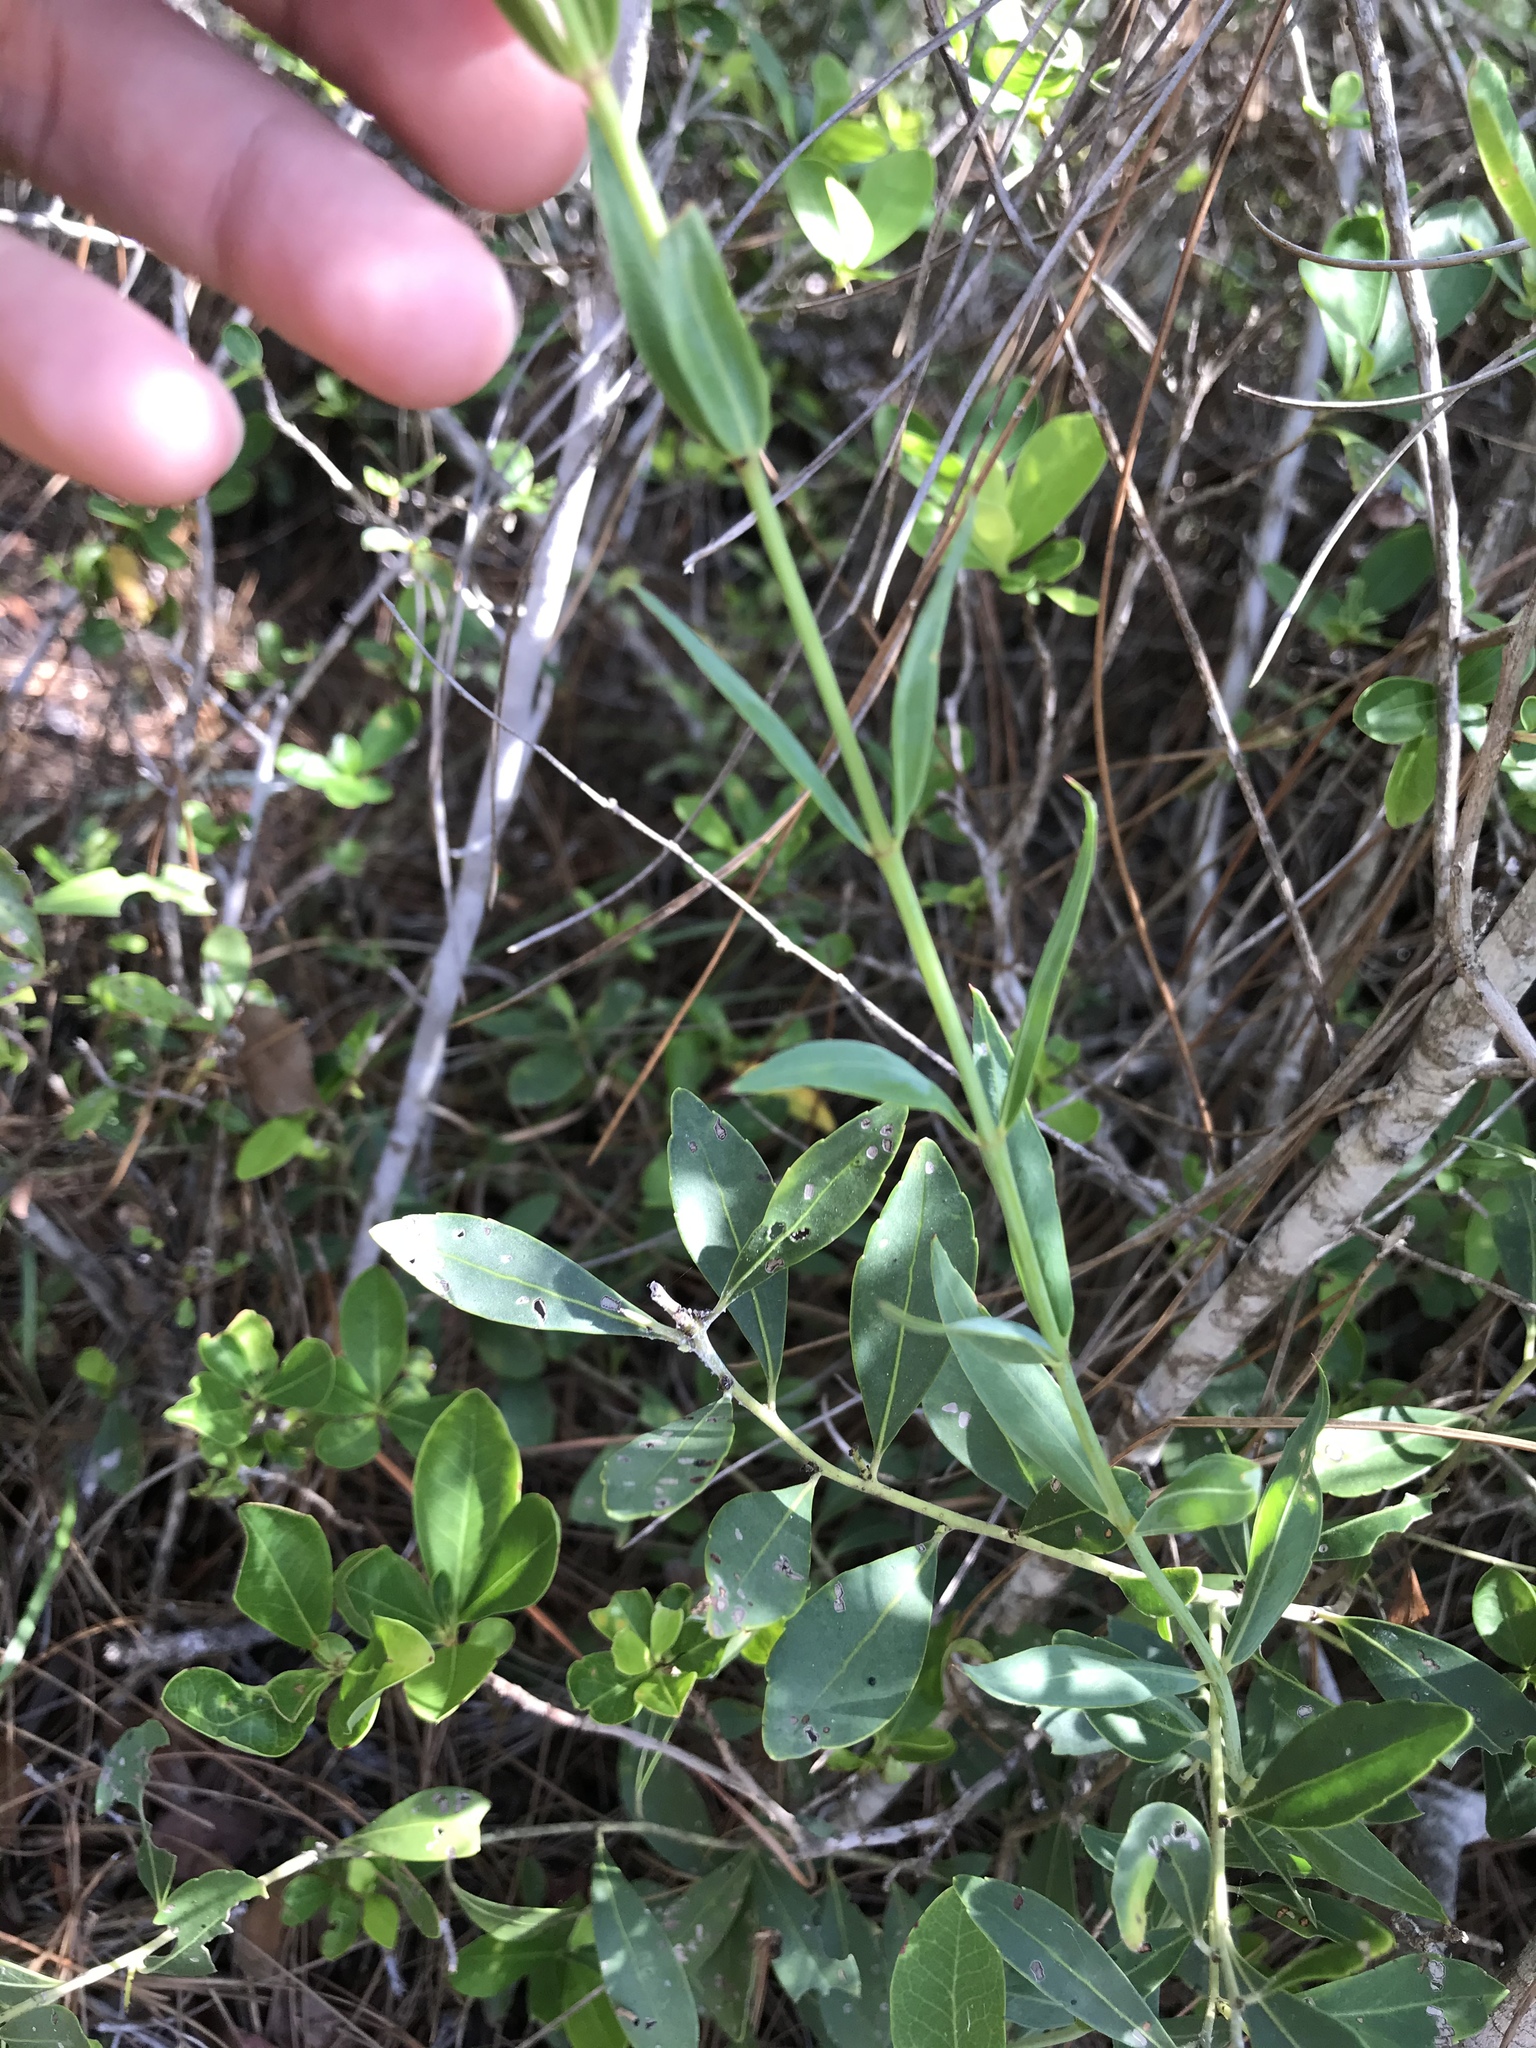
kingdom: Plantae
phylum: Tracheophyta
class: Magnoliopsida
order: Myrtales
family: Melastomataceae
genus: Rhexia
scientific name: Rhexia alifanus
